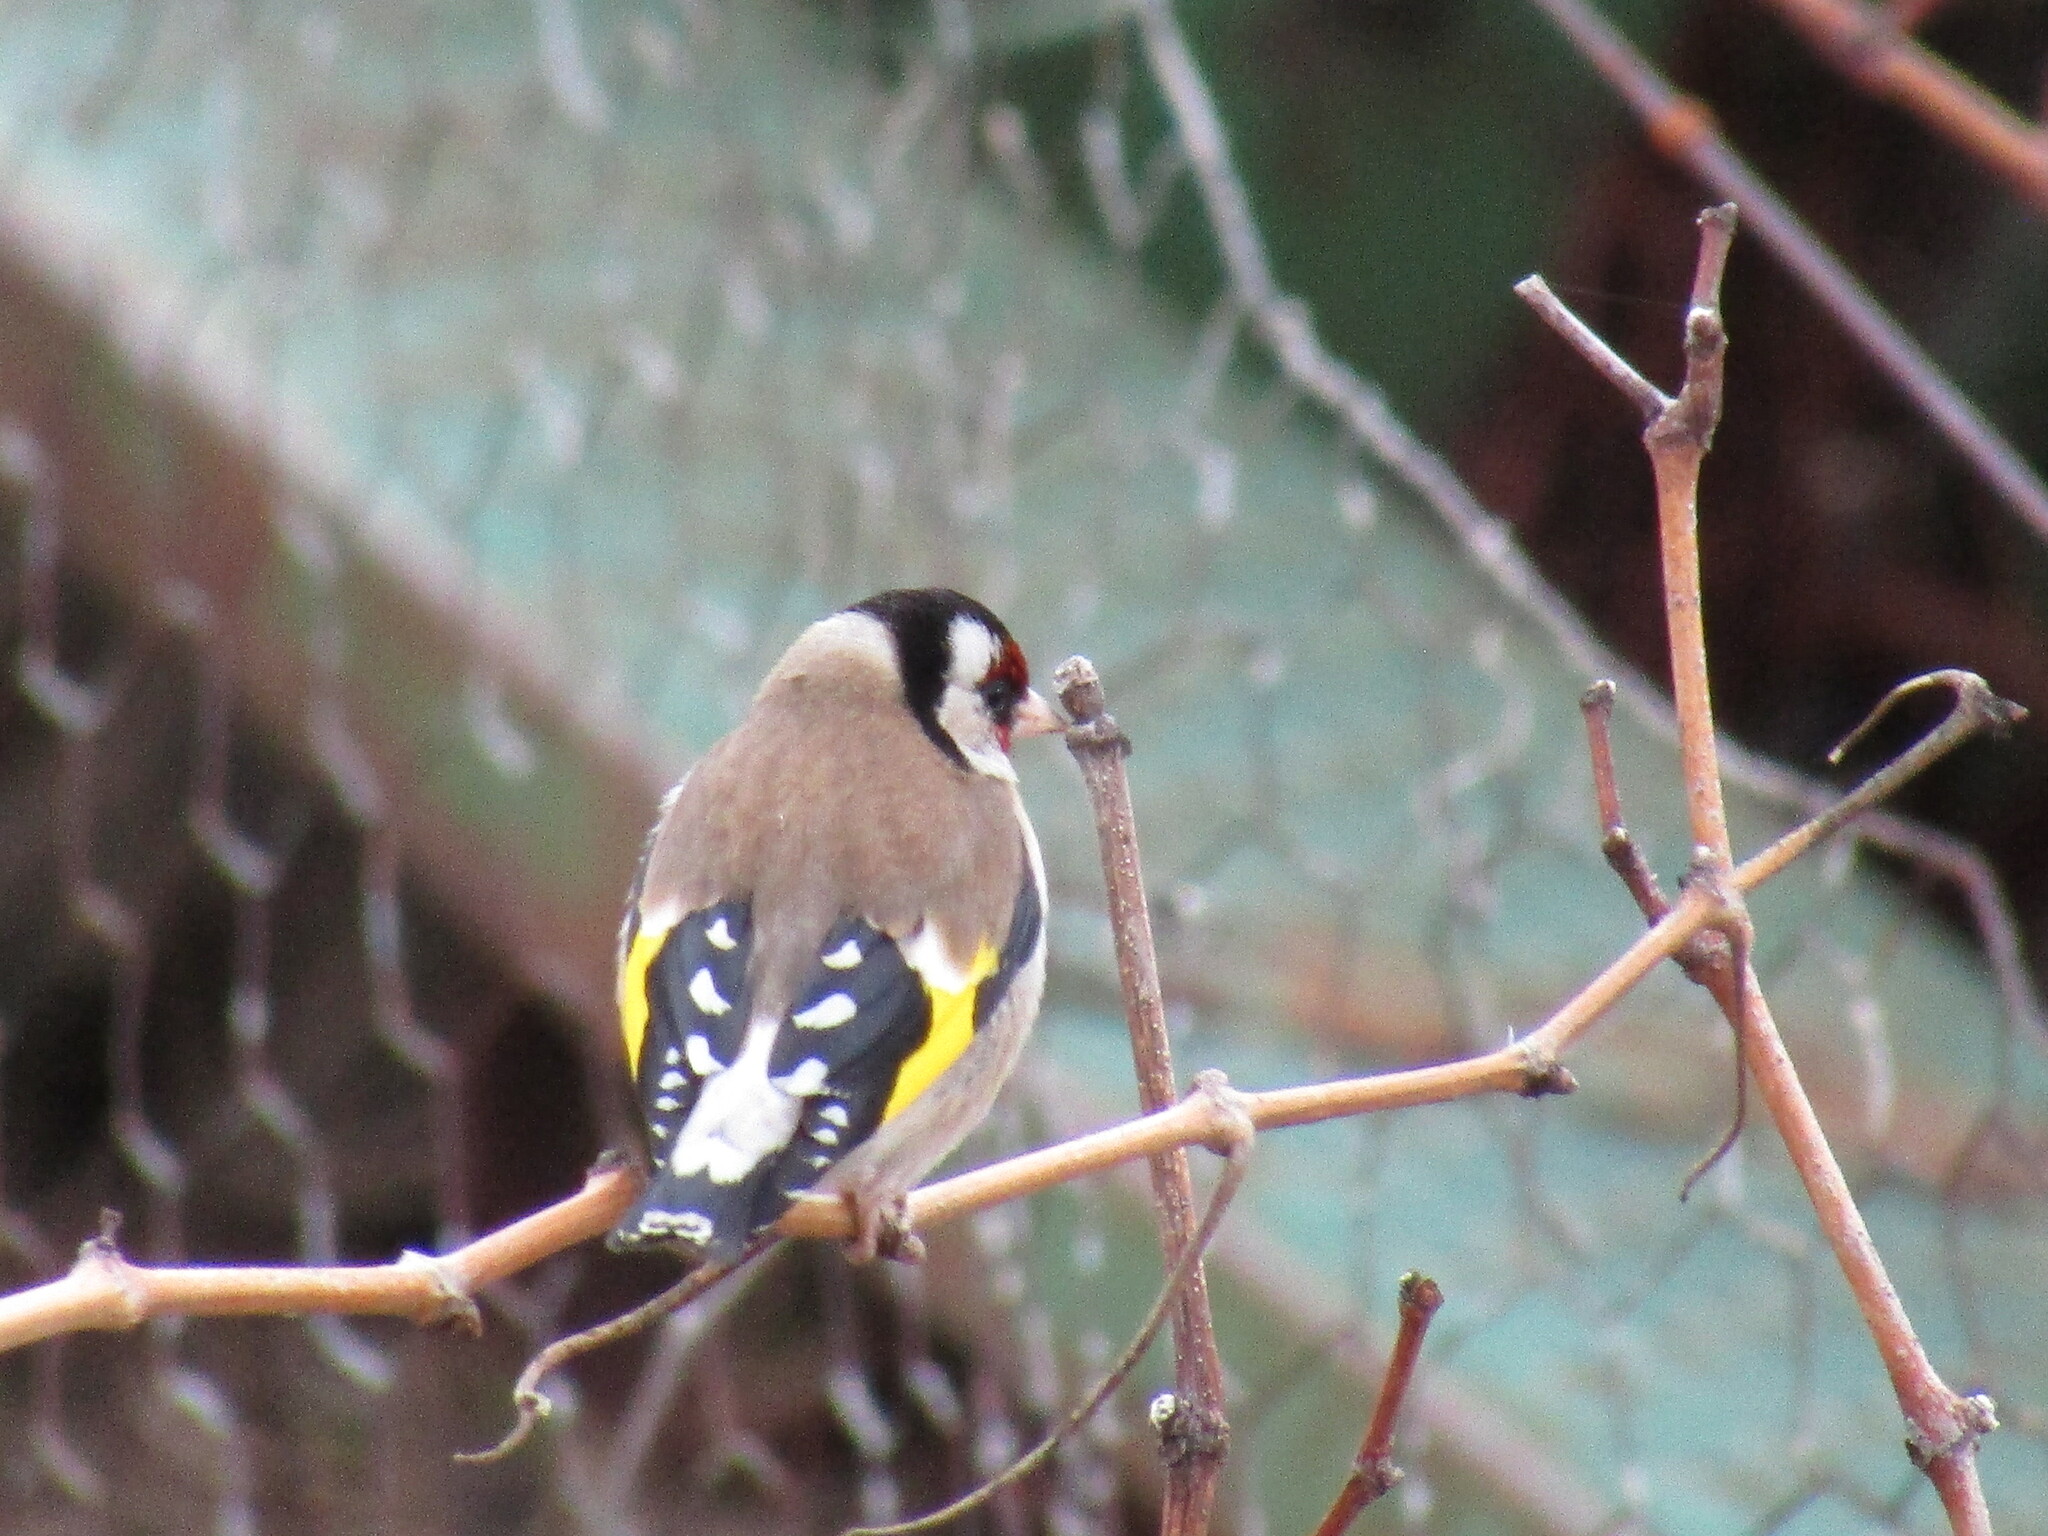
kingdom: Animalia
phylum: Chordata
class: Aves
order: Passeriformes
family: Fringillidae
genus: Carduelis
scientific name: Carduelis carduelis
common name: European goldfinch
